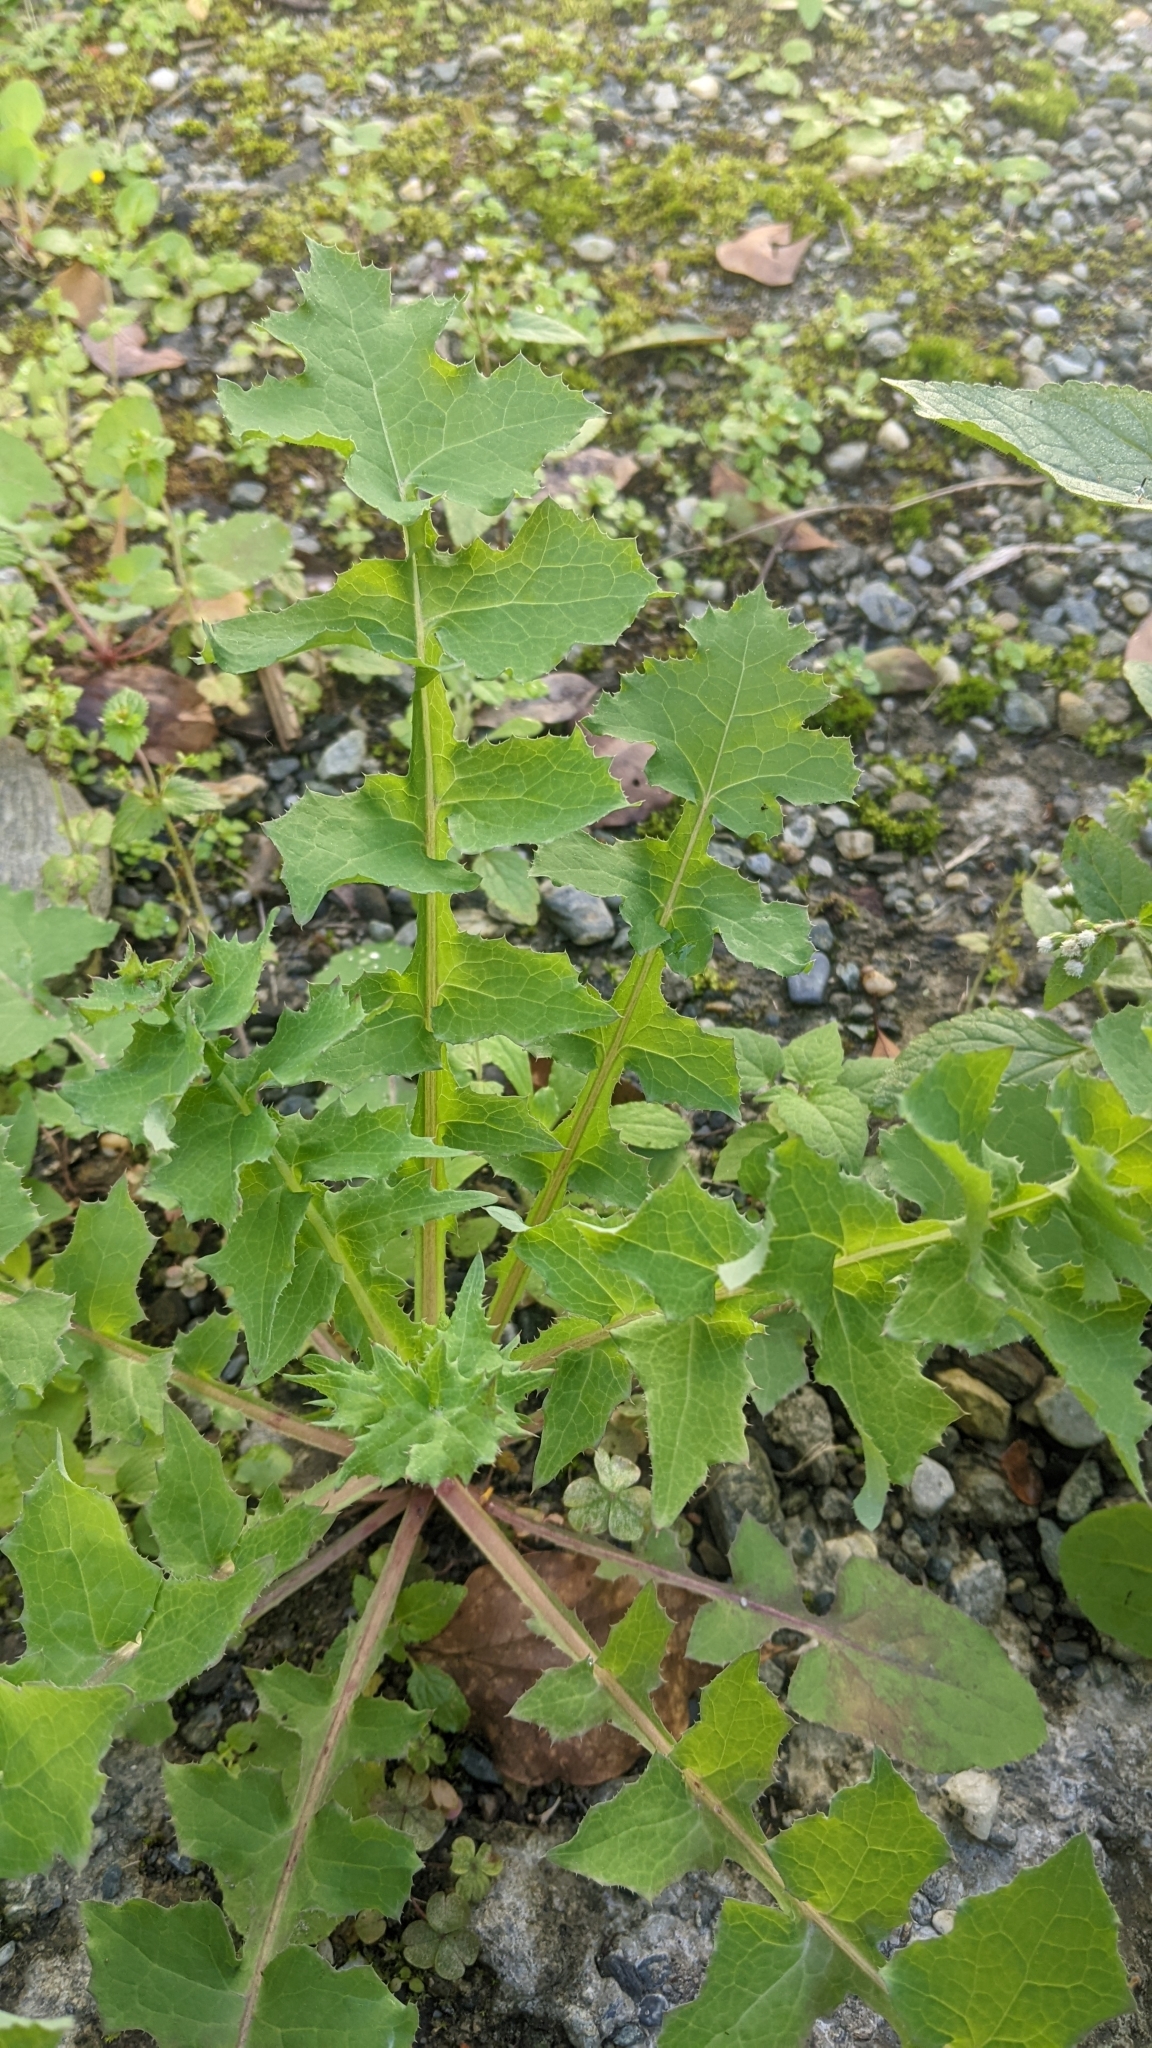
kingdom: Plantae
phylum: Tracheophyta
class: Magnoliopsida
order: Asterales
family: Asteraceae
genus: Sonchus
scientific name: Sonchus oleraceus
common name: Common sowthistle
